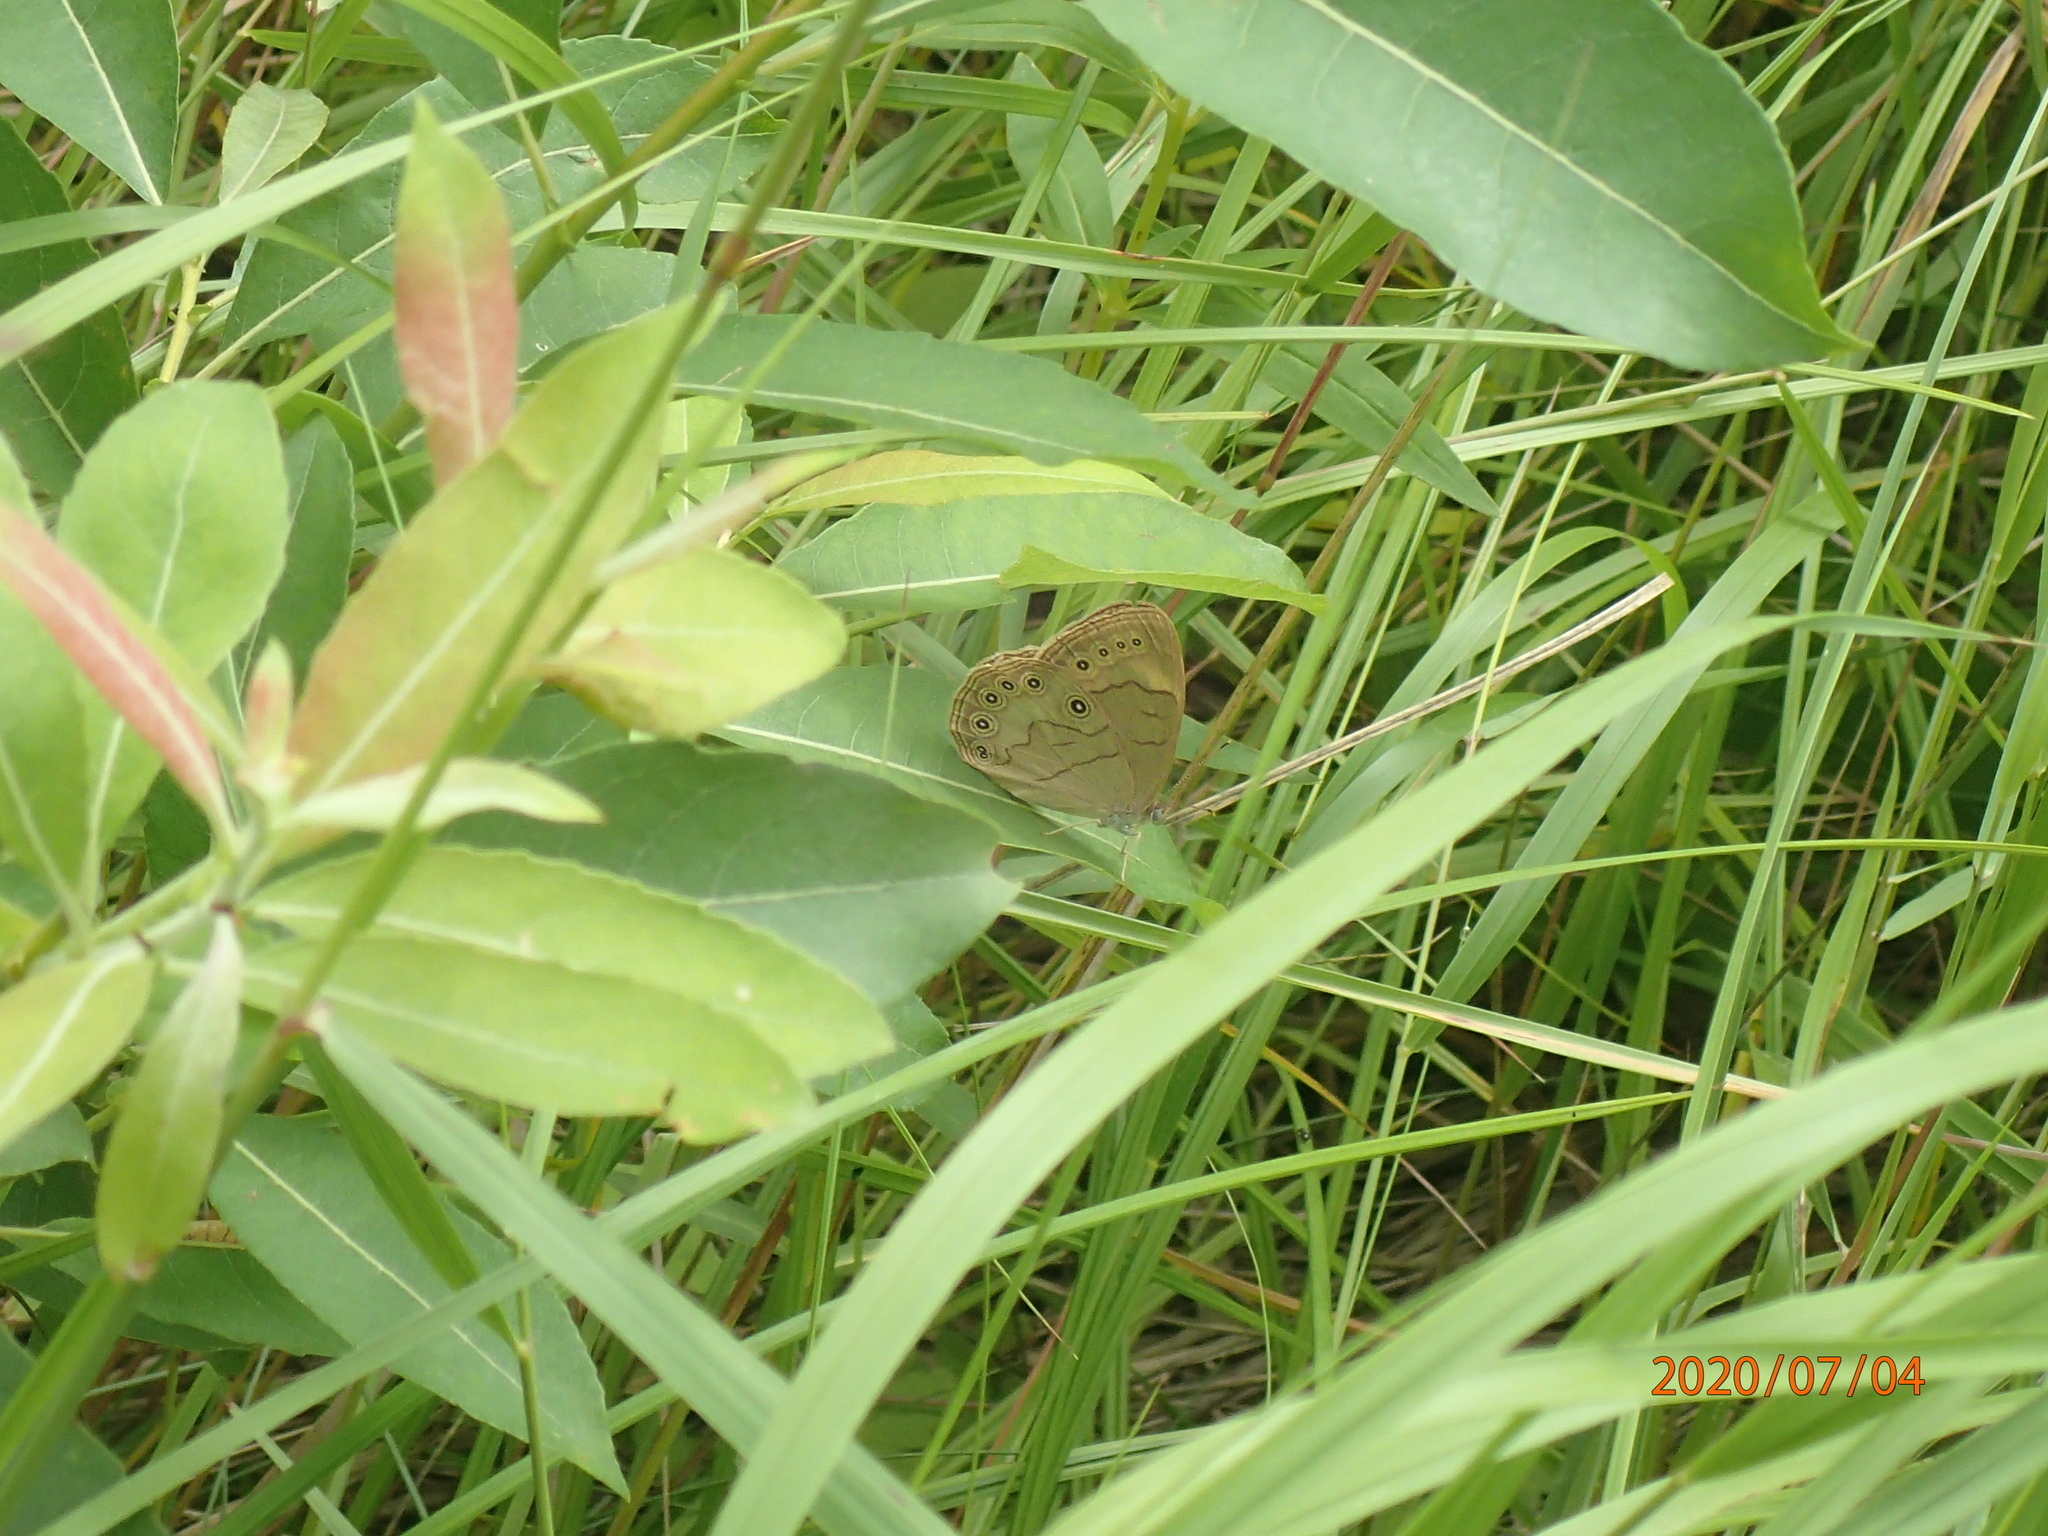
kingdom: Animalia
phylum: Arthropoda
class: Insecta
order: Lepidoptera
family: Nymphalidae
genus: Lethe
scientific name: Lethe eurydice
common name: Eyed brown
